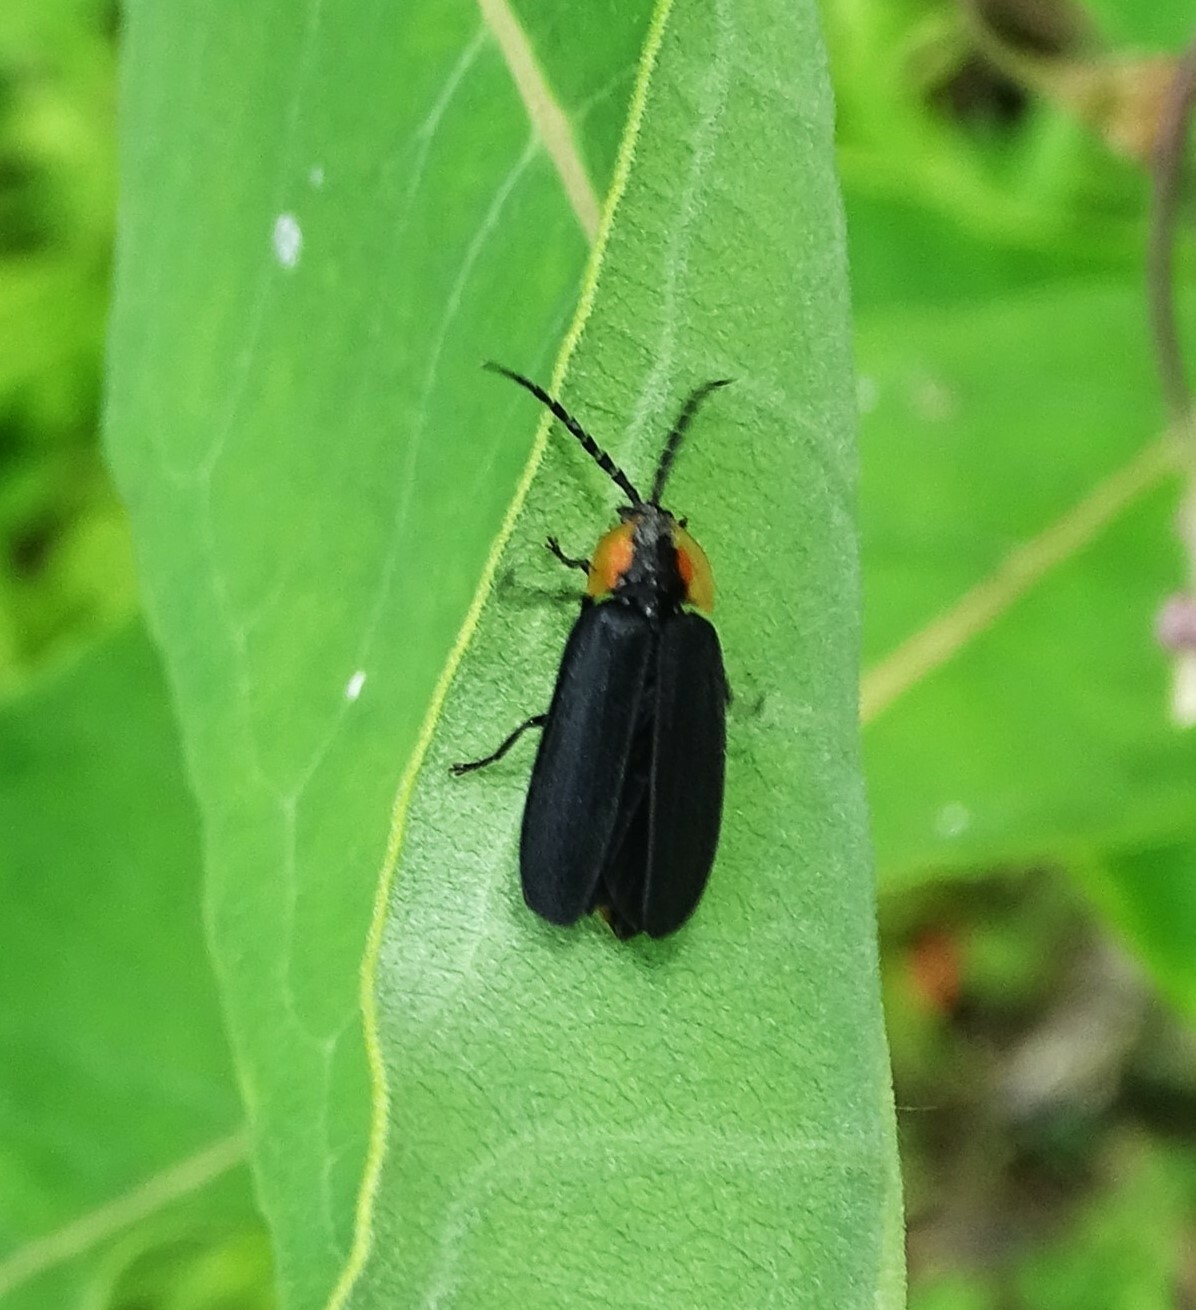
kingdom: Animalia
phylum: Arthropoda
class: Insecta
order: Coleoptera
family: Lampyridae
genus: Lucidota
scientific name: Lucidota atra
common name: Black firefly
